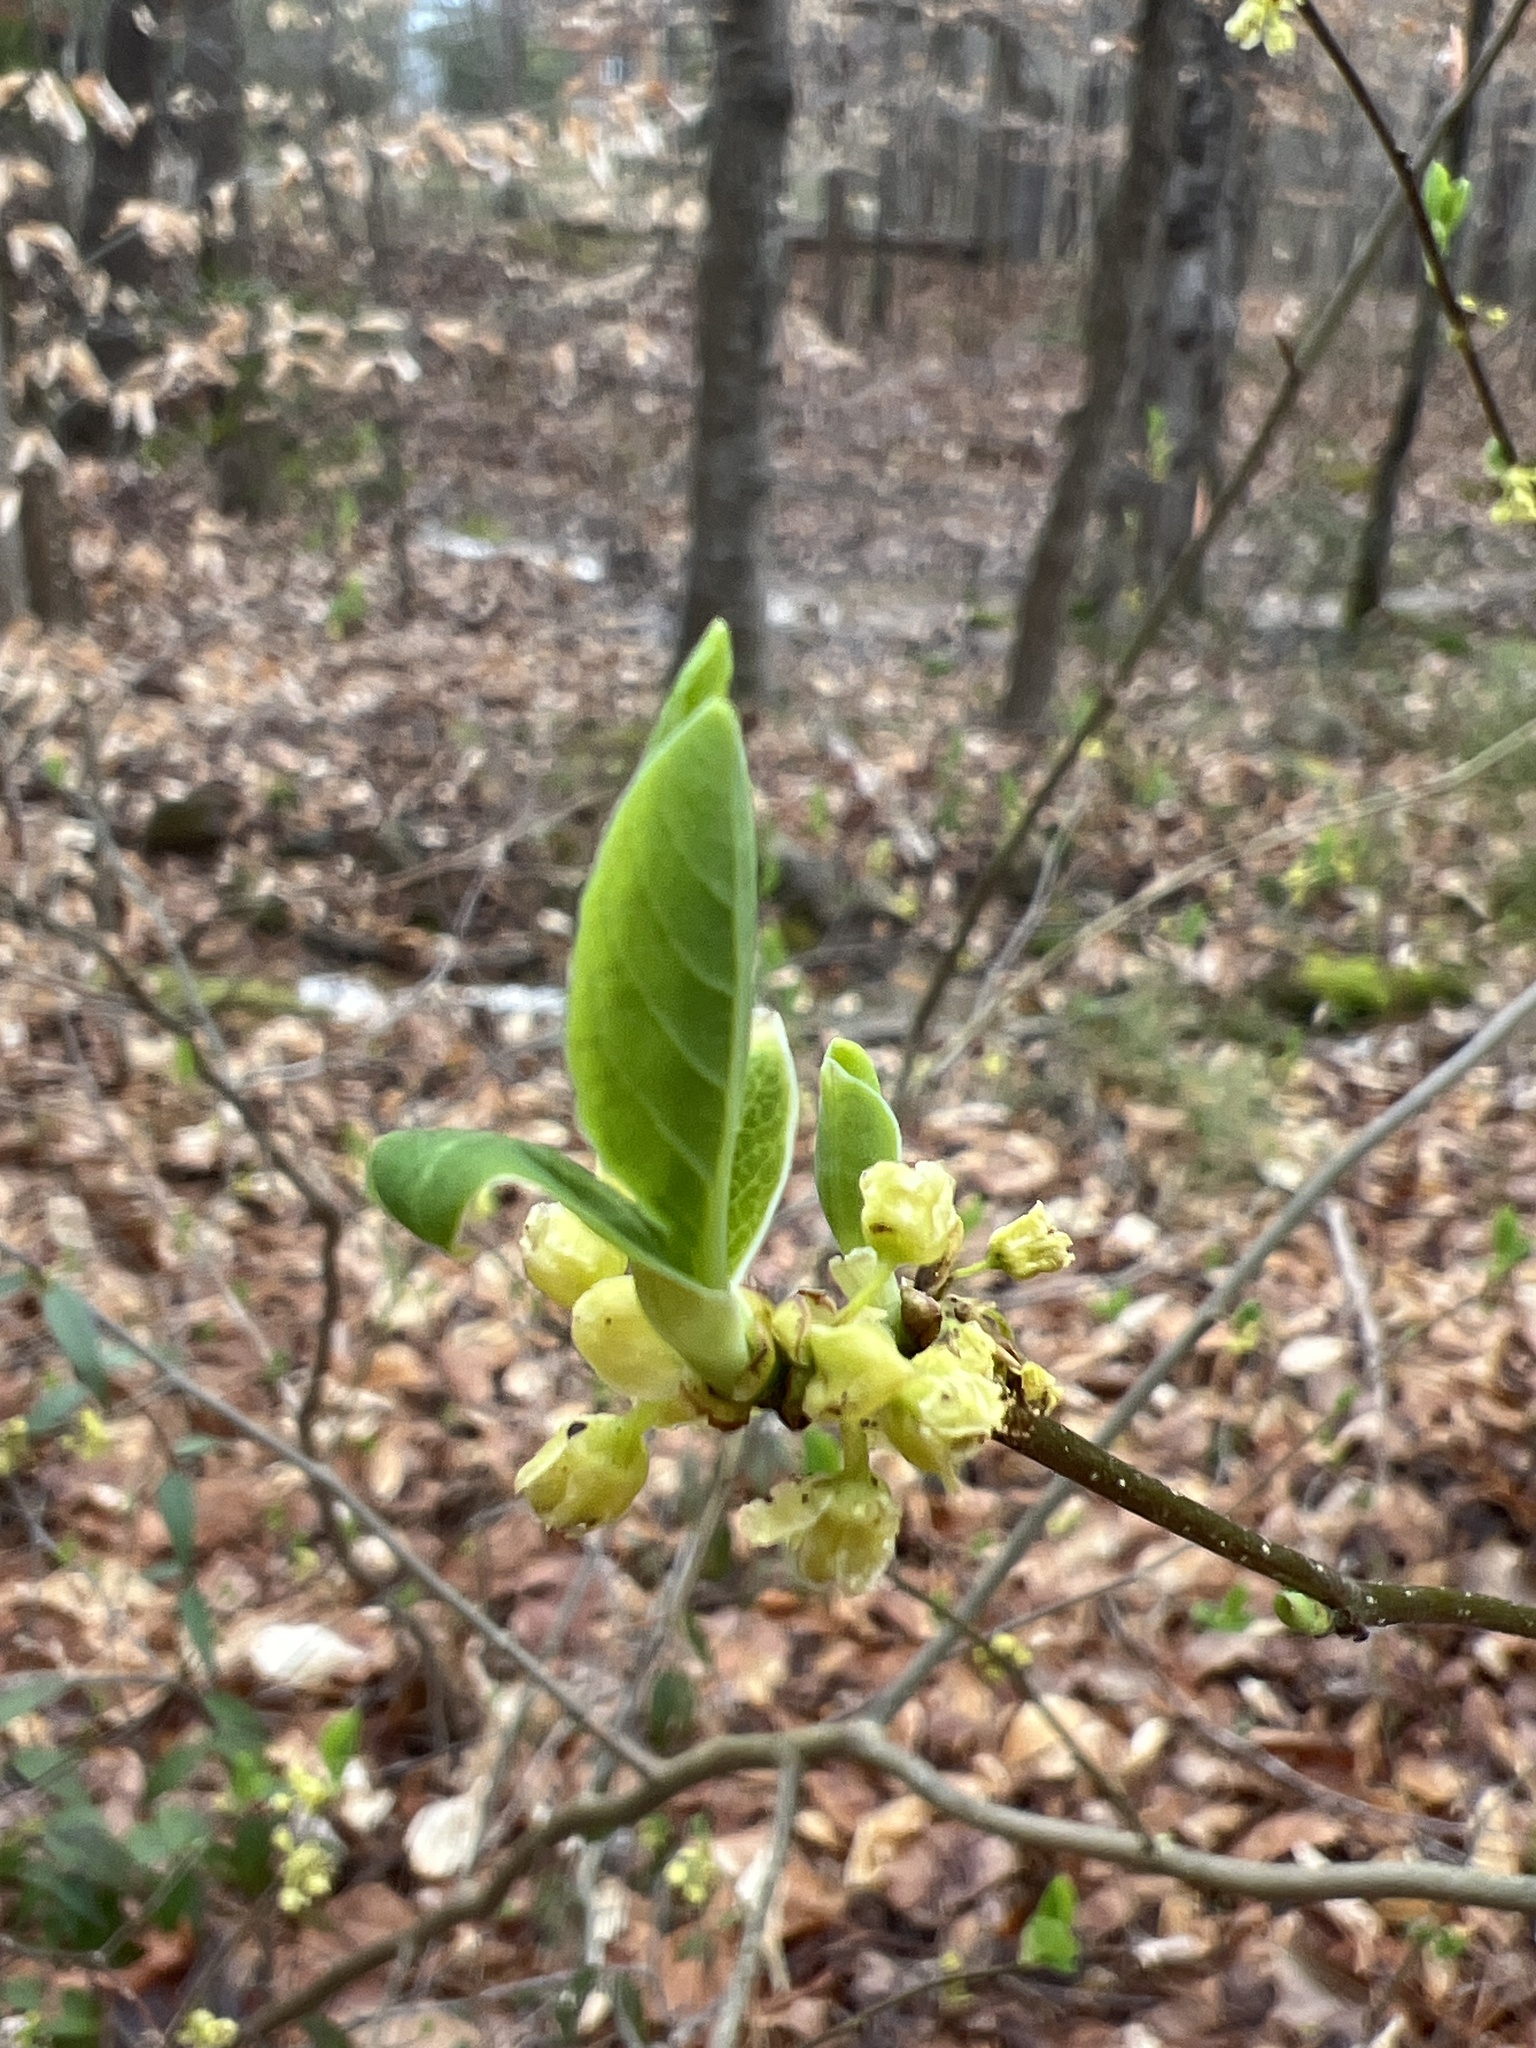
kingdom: Plantae
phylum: Tracheophyta
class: Magnoliopsida
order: Laurales
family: Lauraceae
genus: Lindera
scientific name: Lindera benzoin
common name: Spicebush
